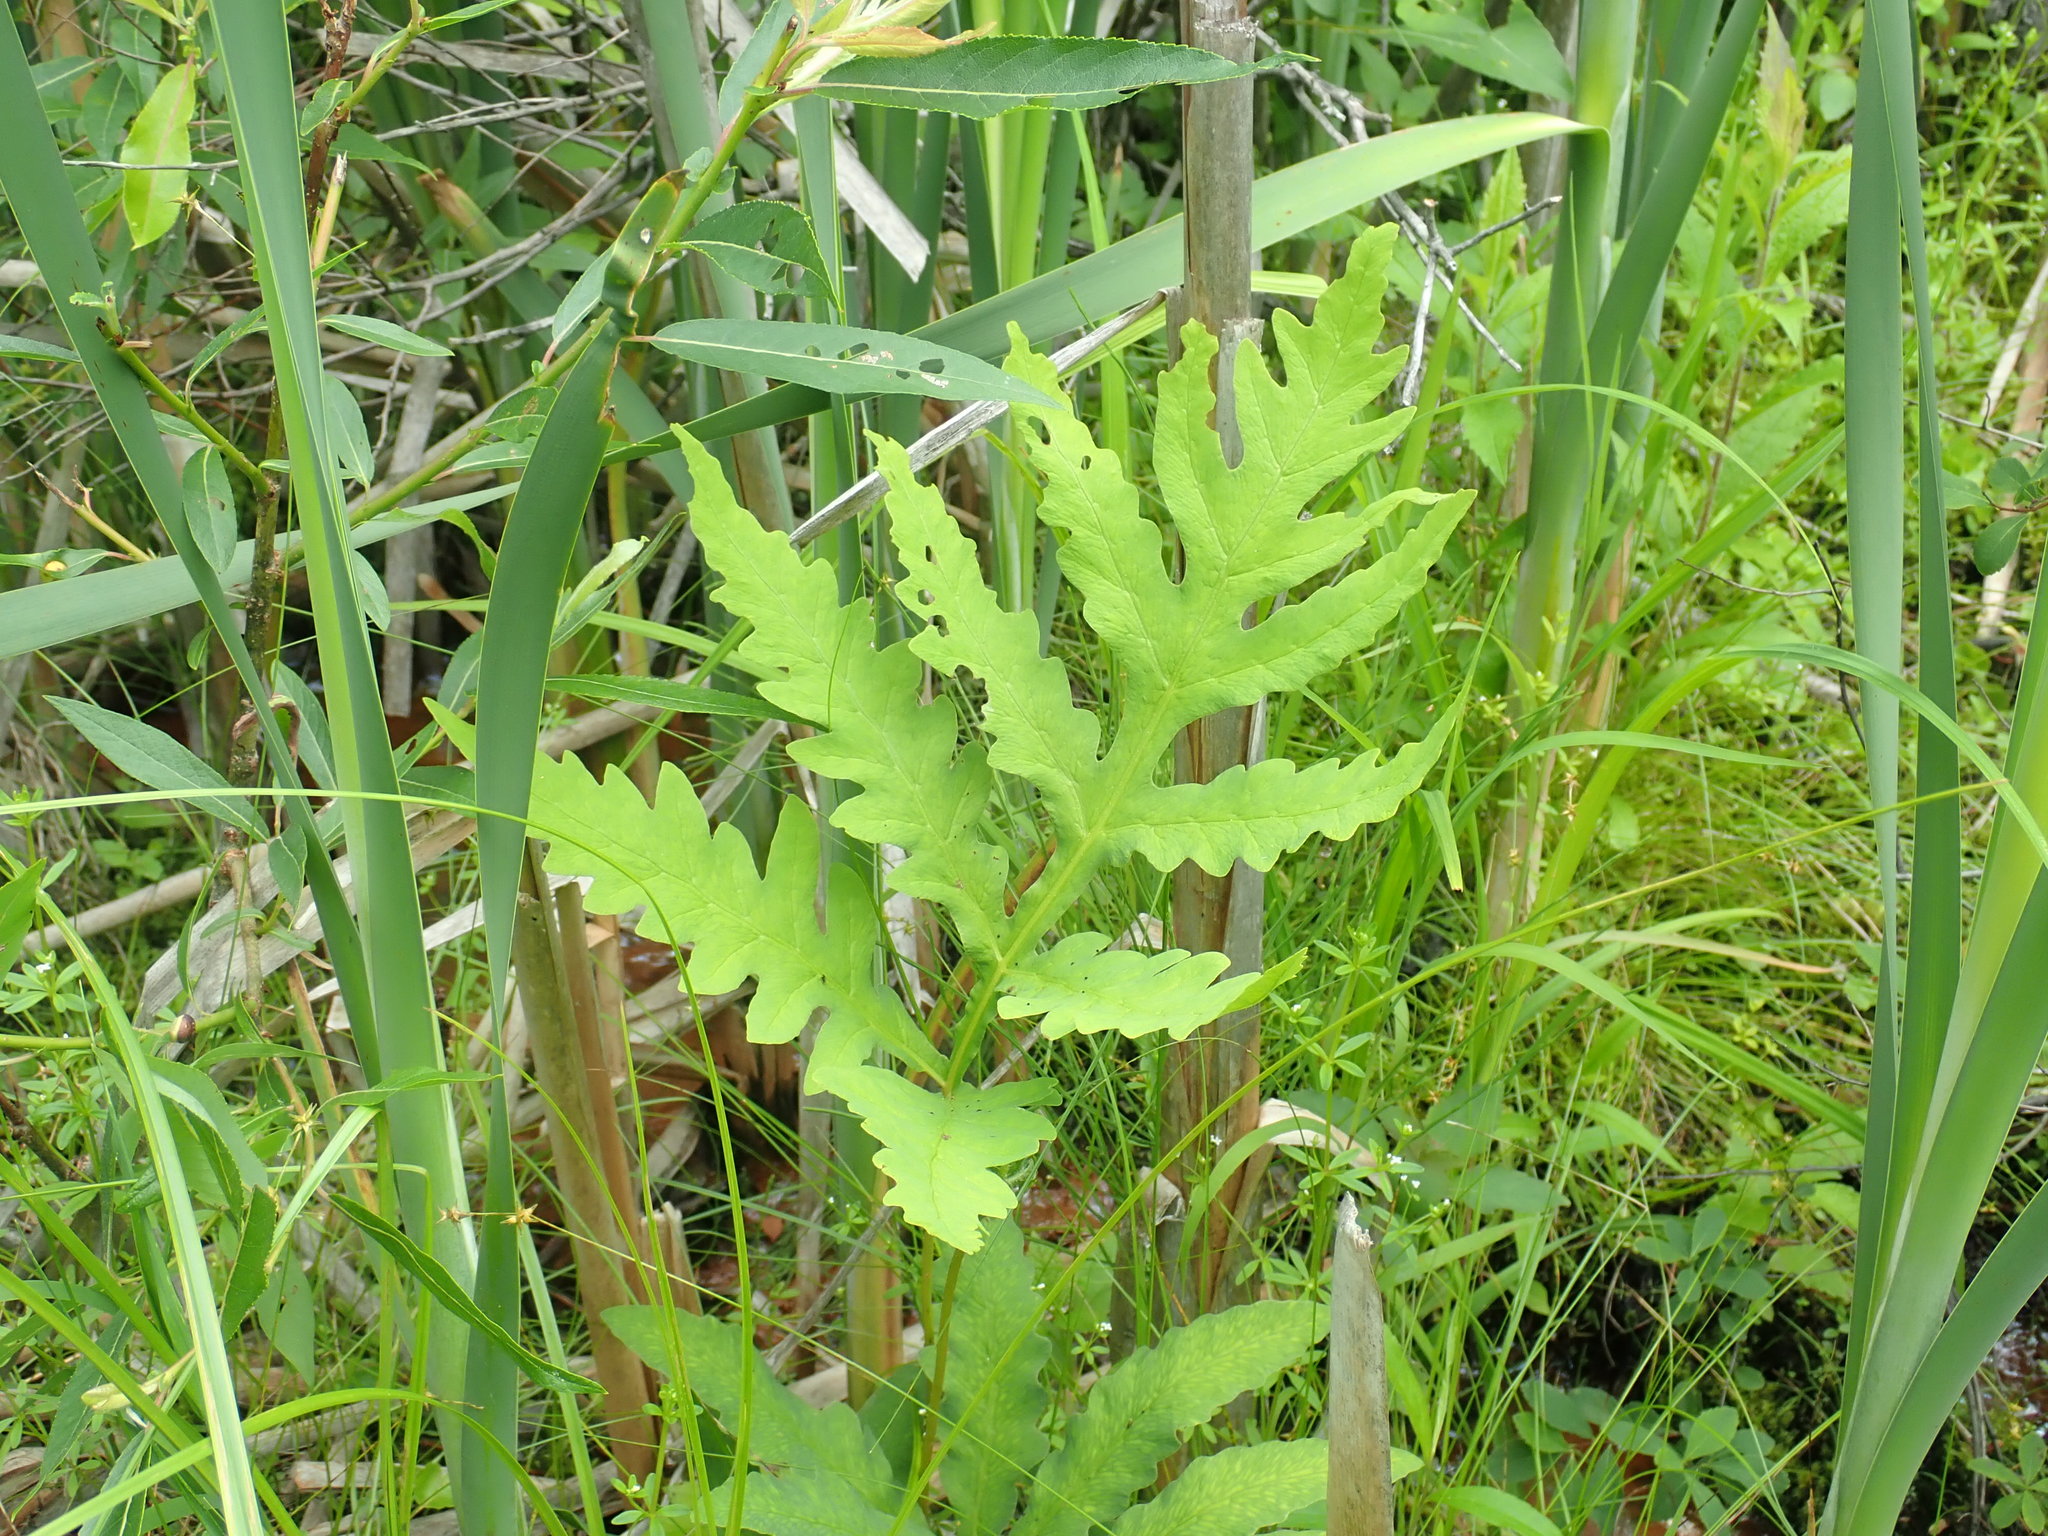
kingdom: Plantae
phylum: Tracheophyta
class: Polypodiopsida
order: Polypodiales
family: Onocleaceae
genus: Onoclea
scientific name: Onoclea sensibilis
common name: Sensitive fern
